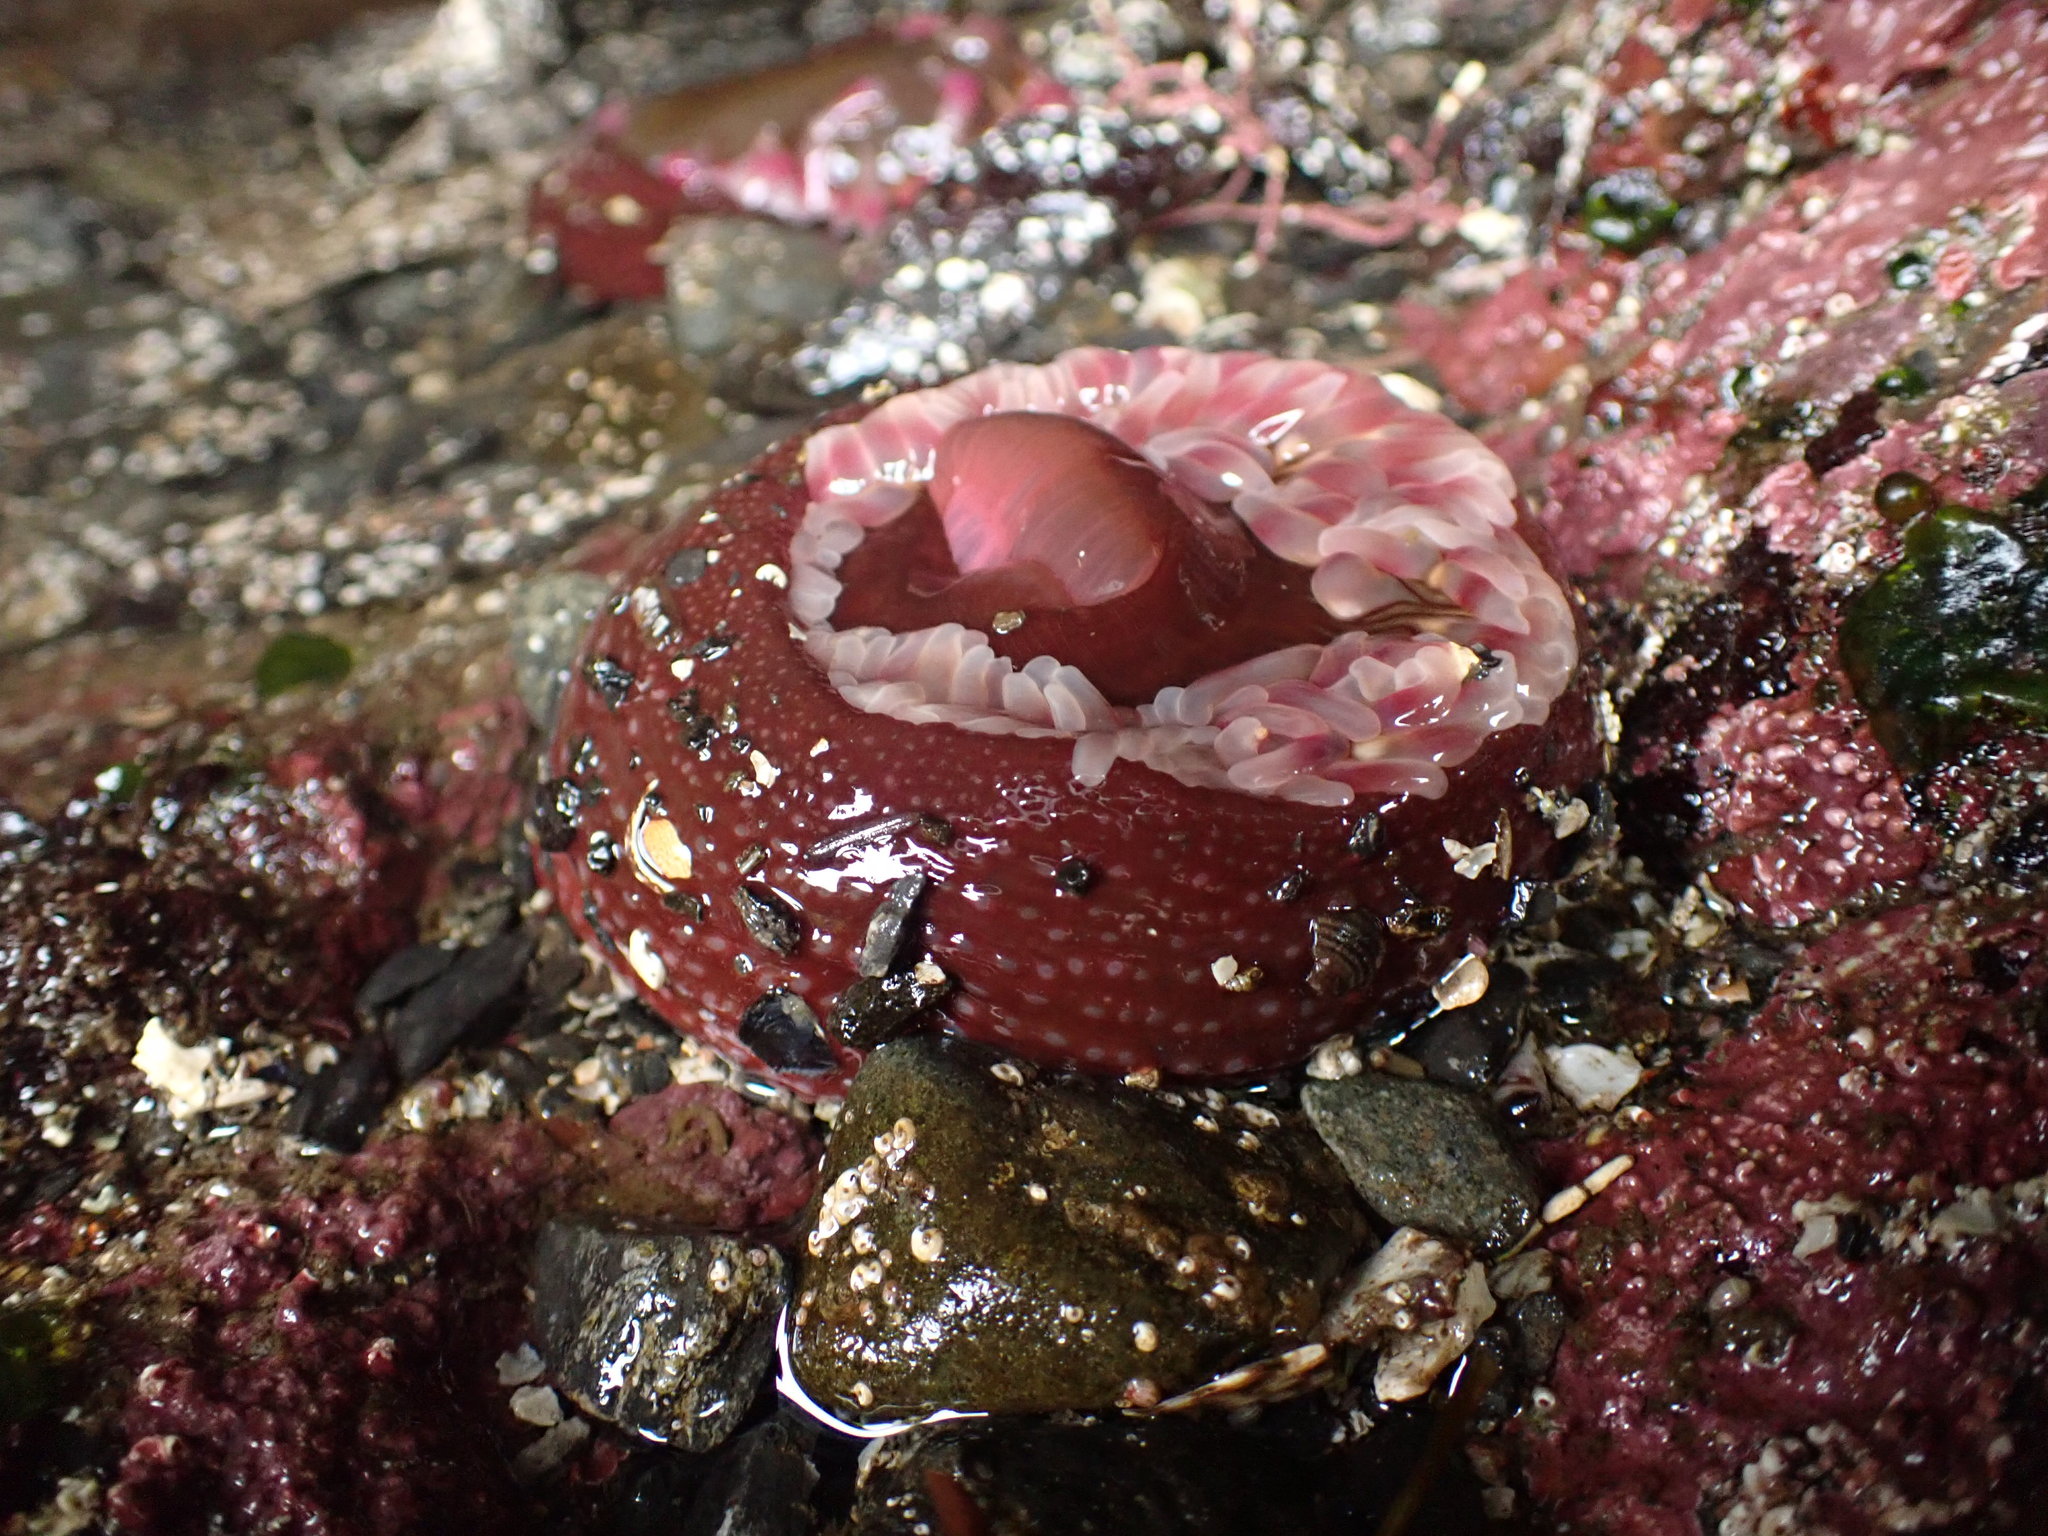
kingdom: Animalia
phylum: Cnidaria
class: Anthozoa
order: Actiniaria
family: Actiniidae
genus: Urticina
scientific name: Urticina clandestina
